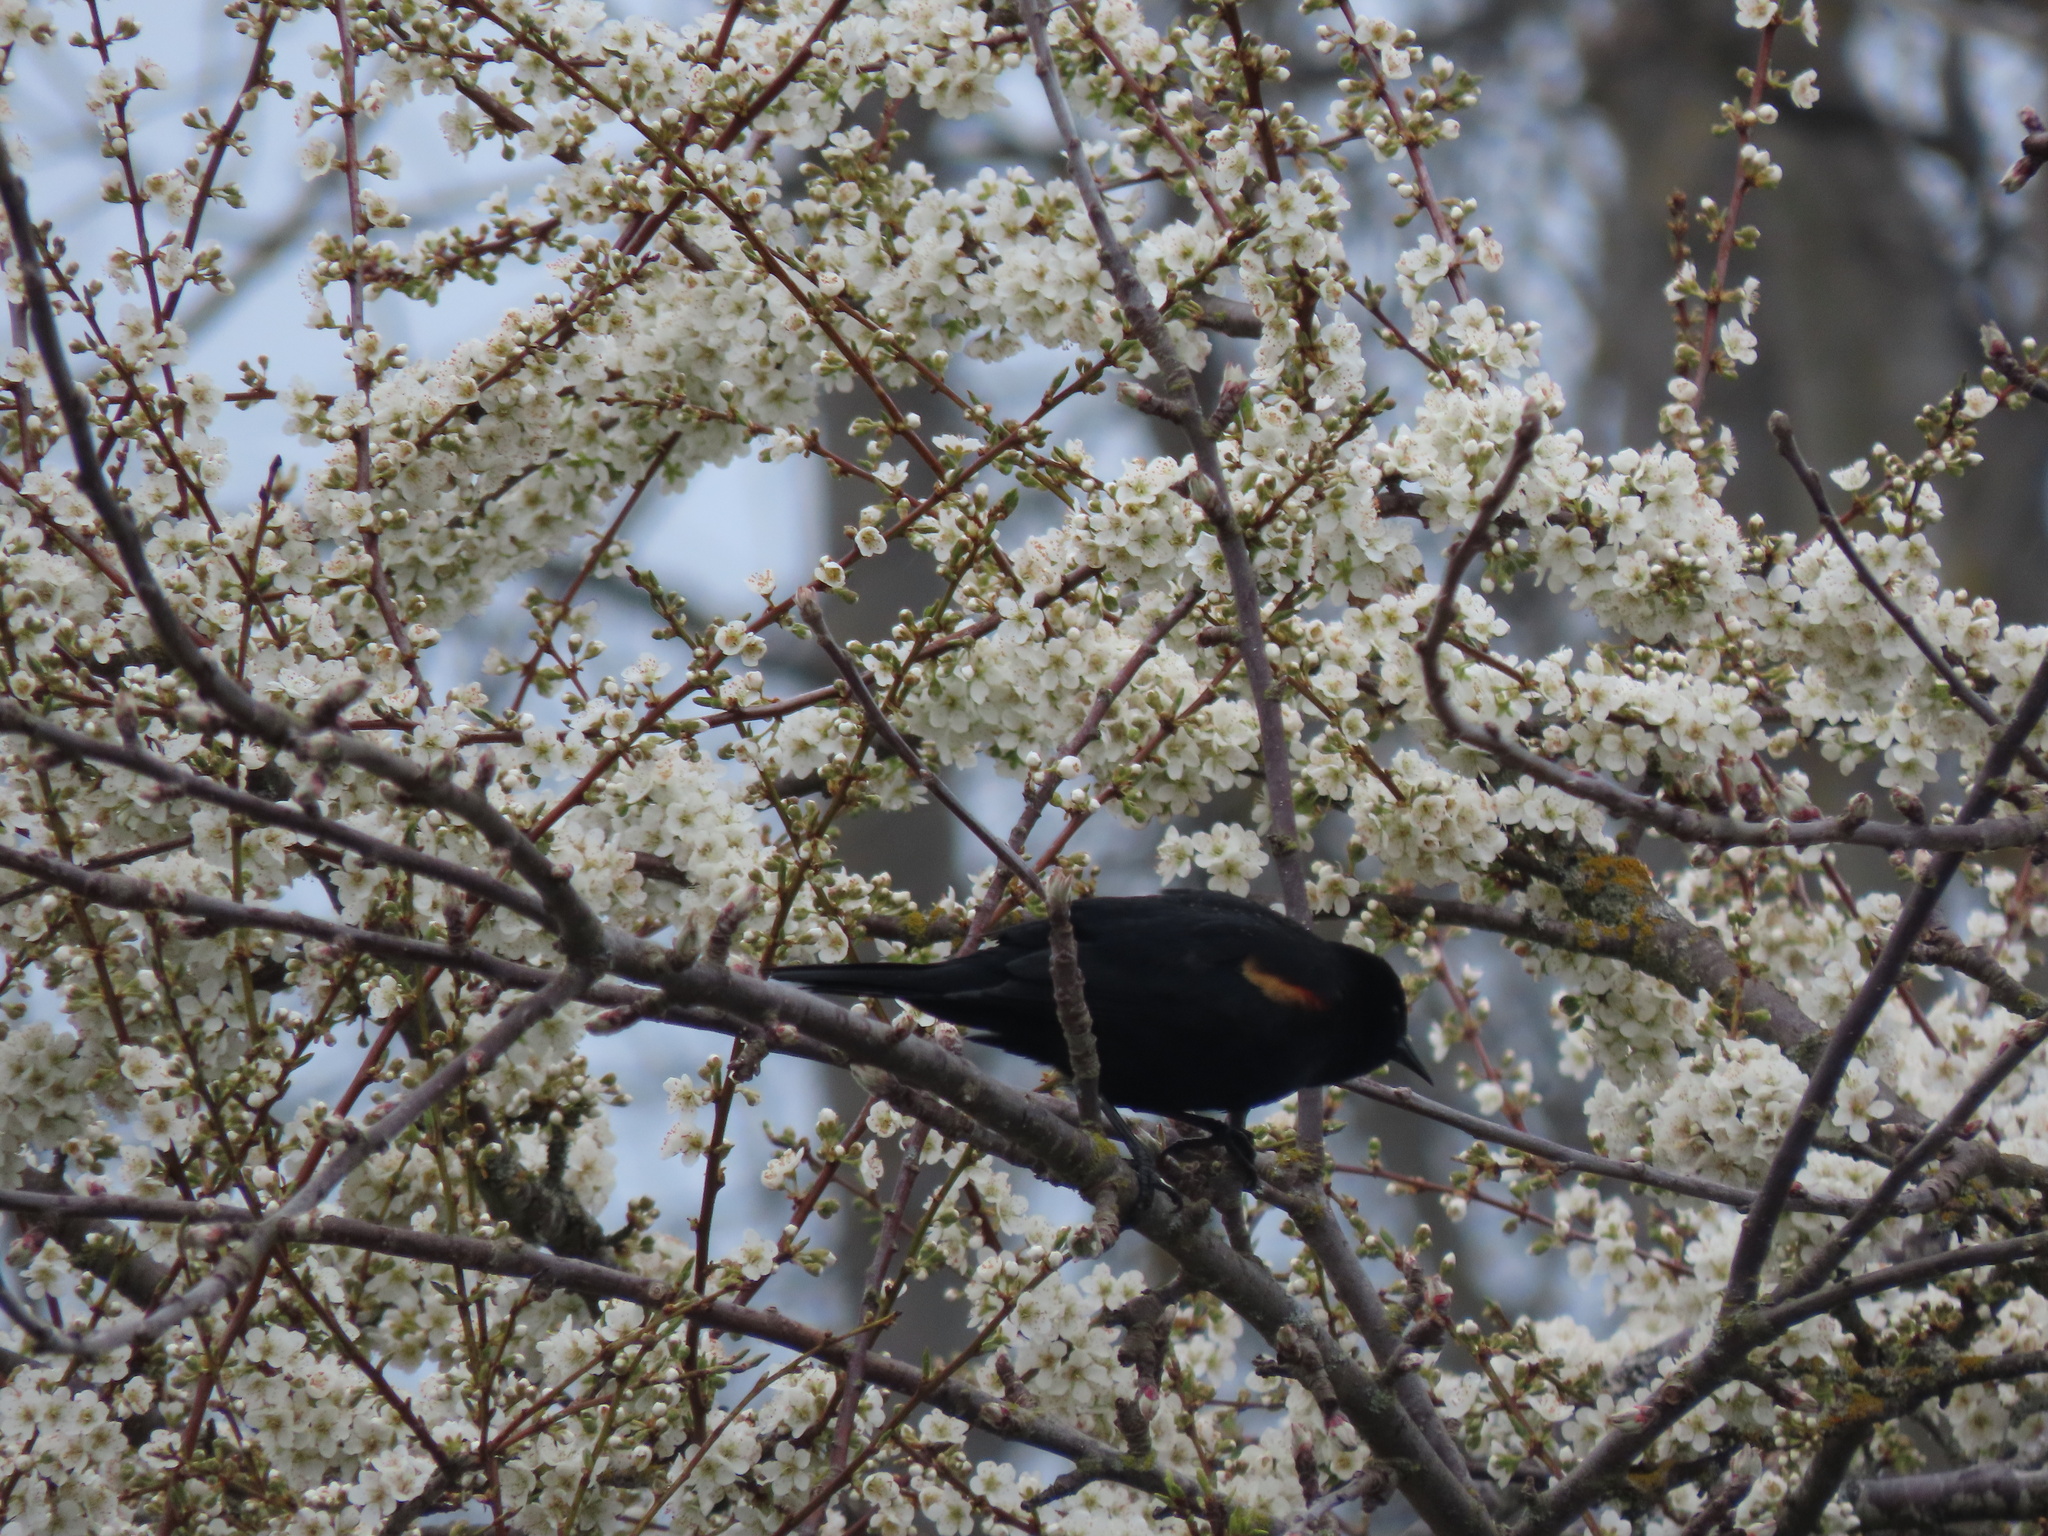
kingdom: Animalia
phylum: Chordata
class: Aves
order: Passeriformes
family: Icteridae
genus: Agelaius
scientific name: Agelaius phoeniceus
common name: Red-winged blackbird
